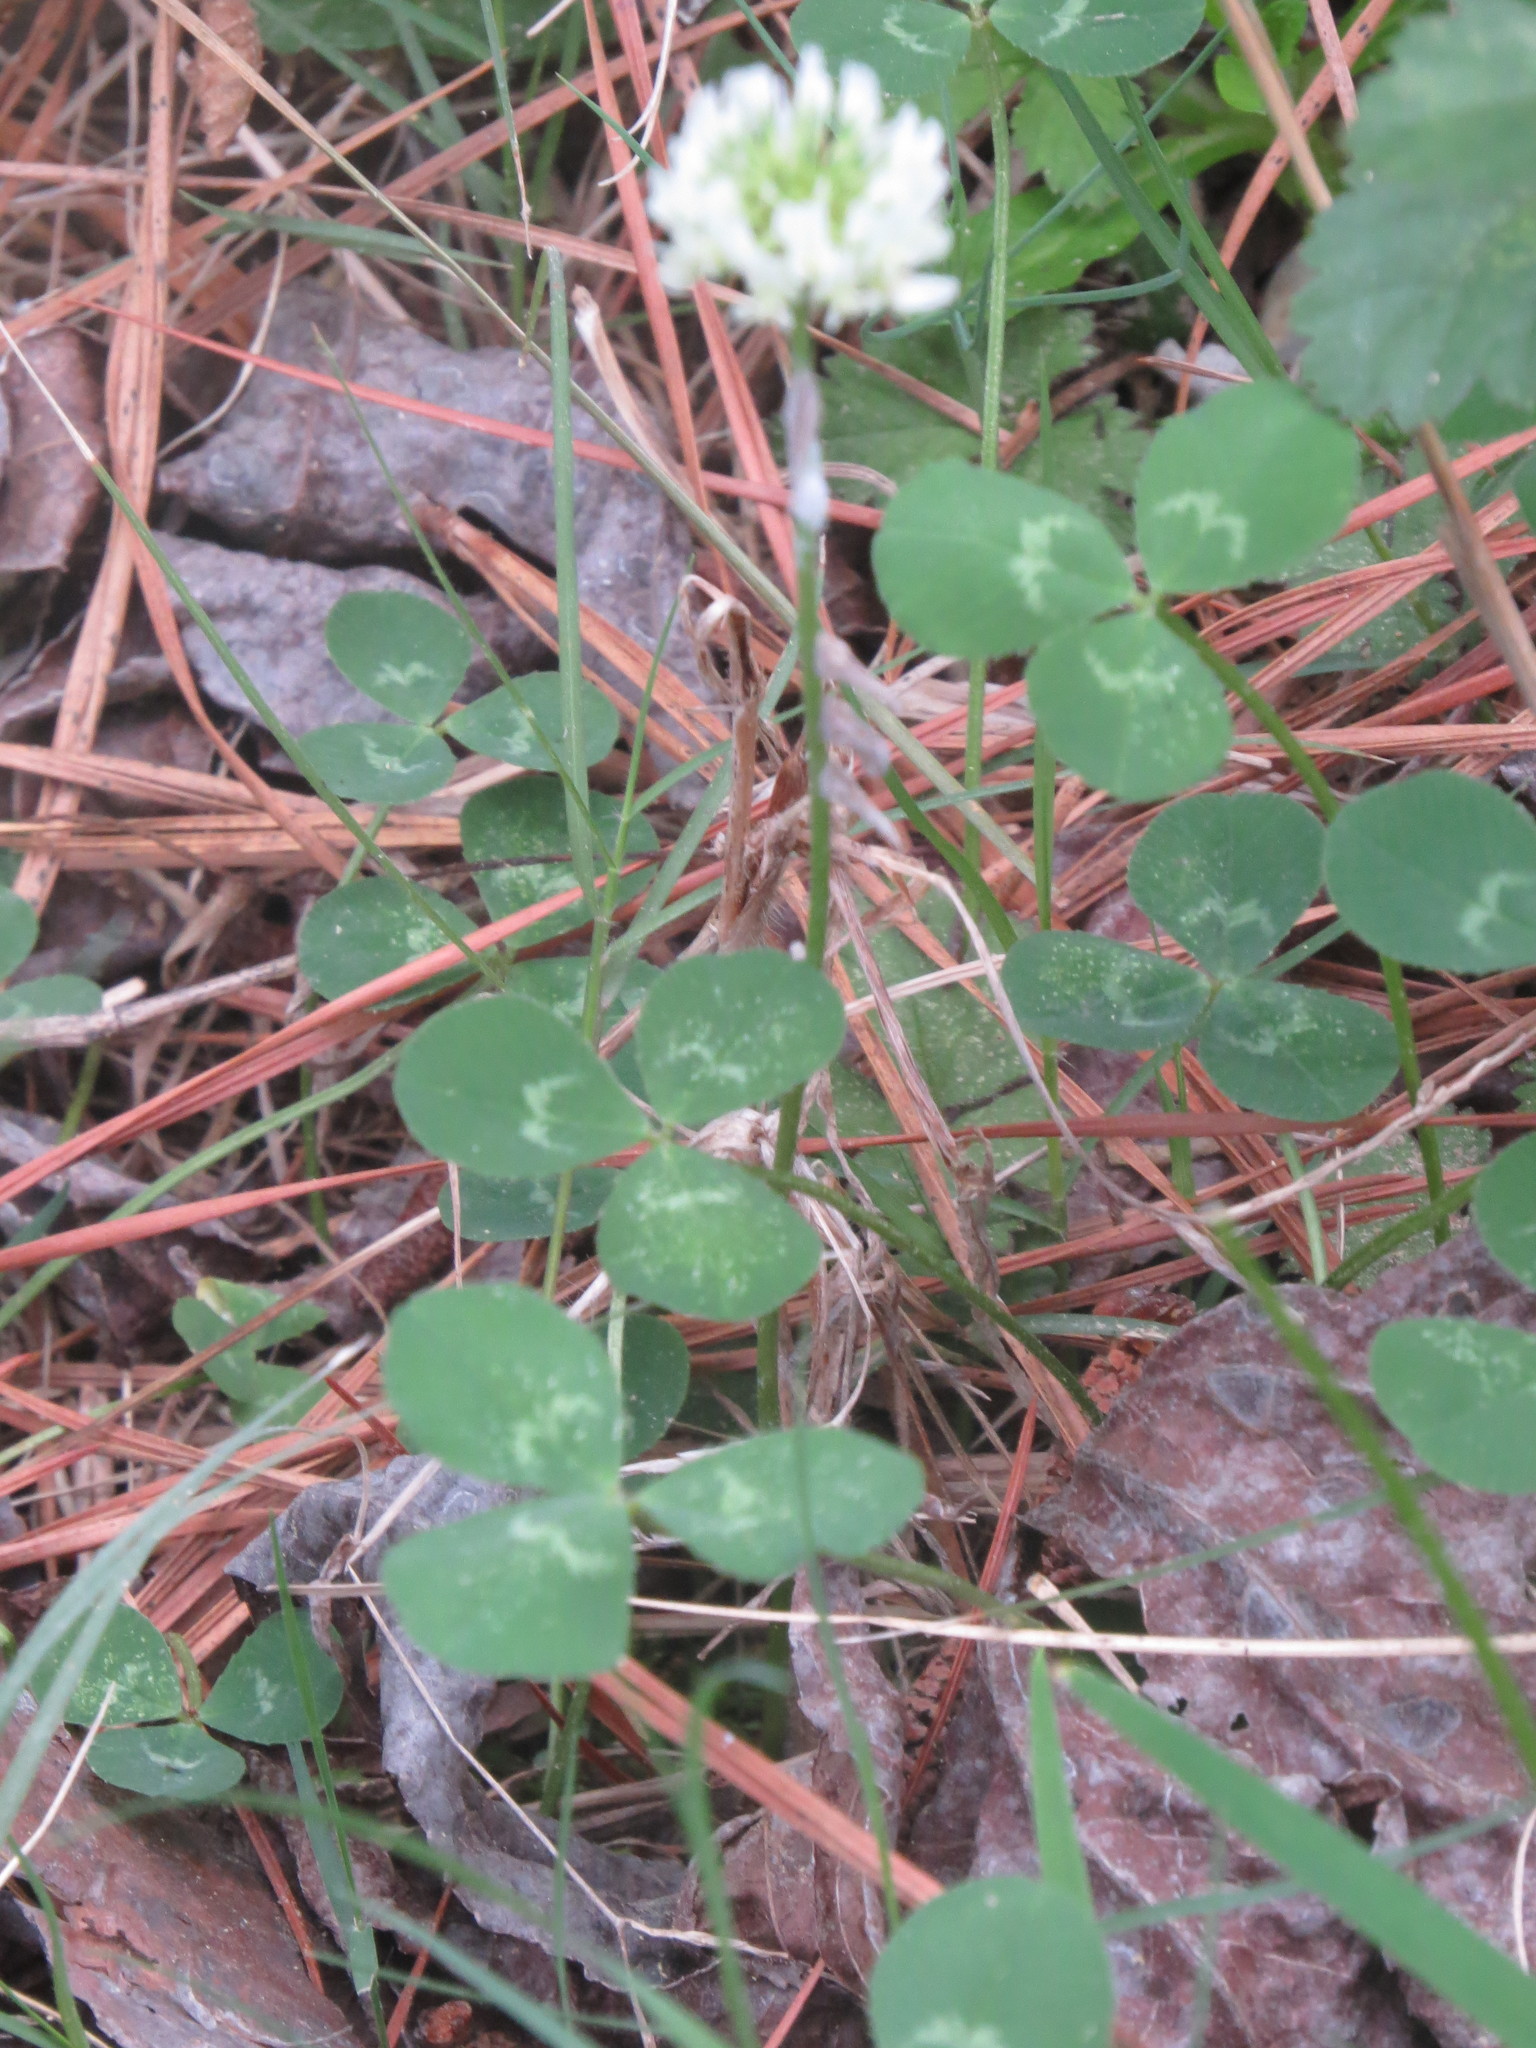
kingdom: Plantae
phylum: Tracheophyta
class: Magnoliopsida
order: Fabales
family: Fabaceae
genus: Trifolium
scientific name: Trifolium repens
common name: White clover
